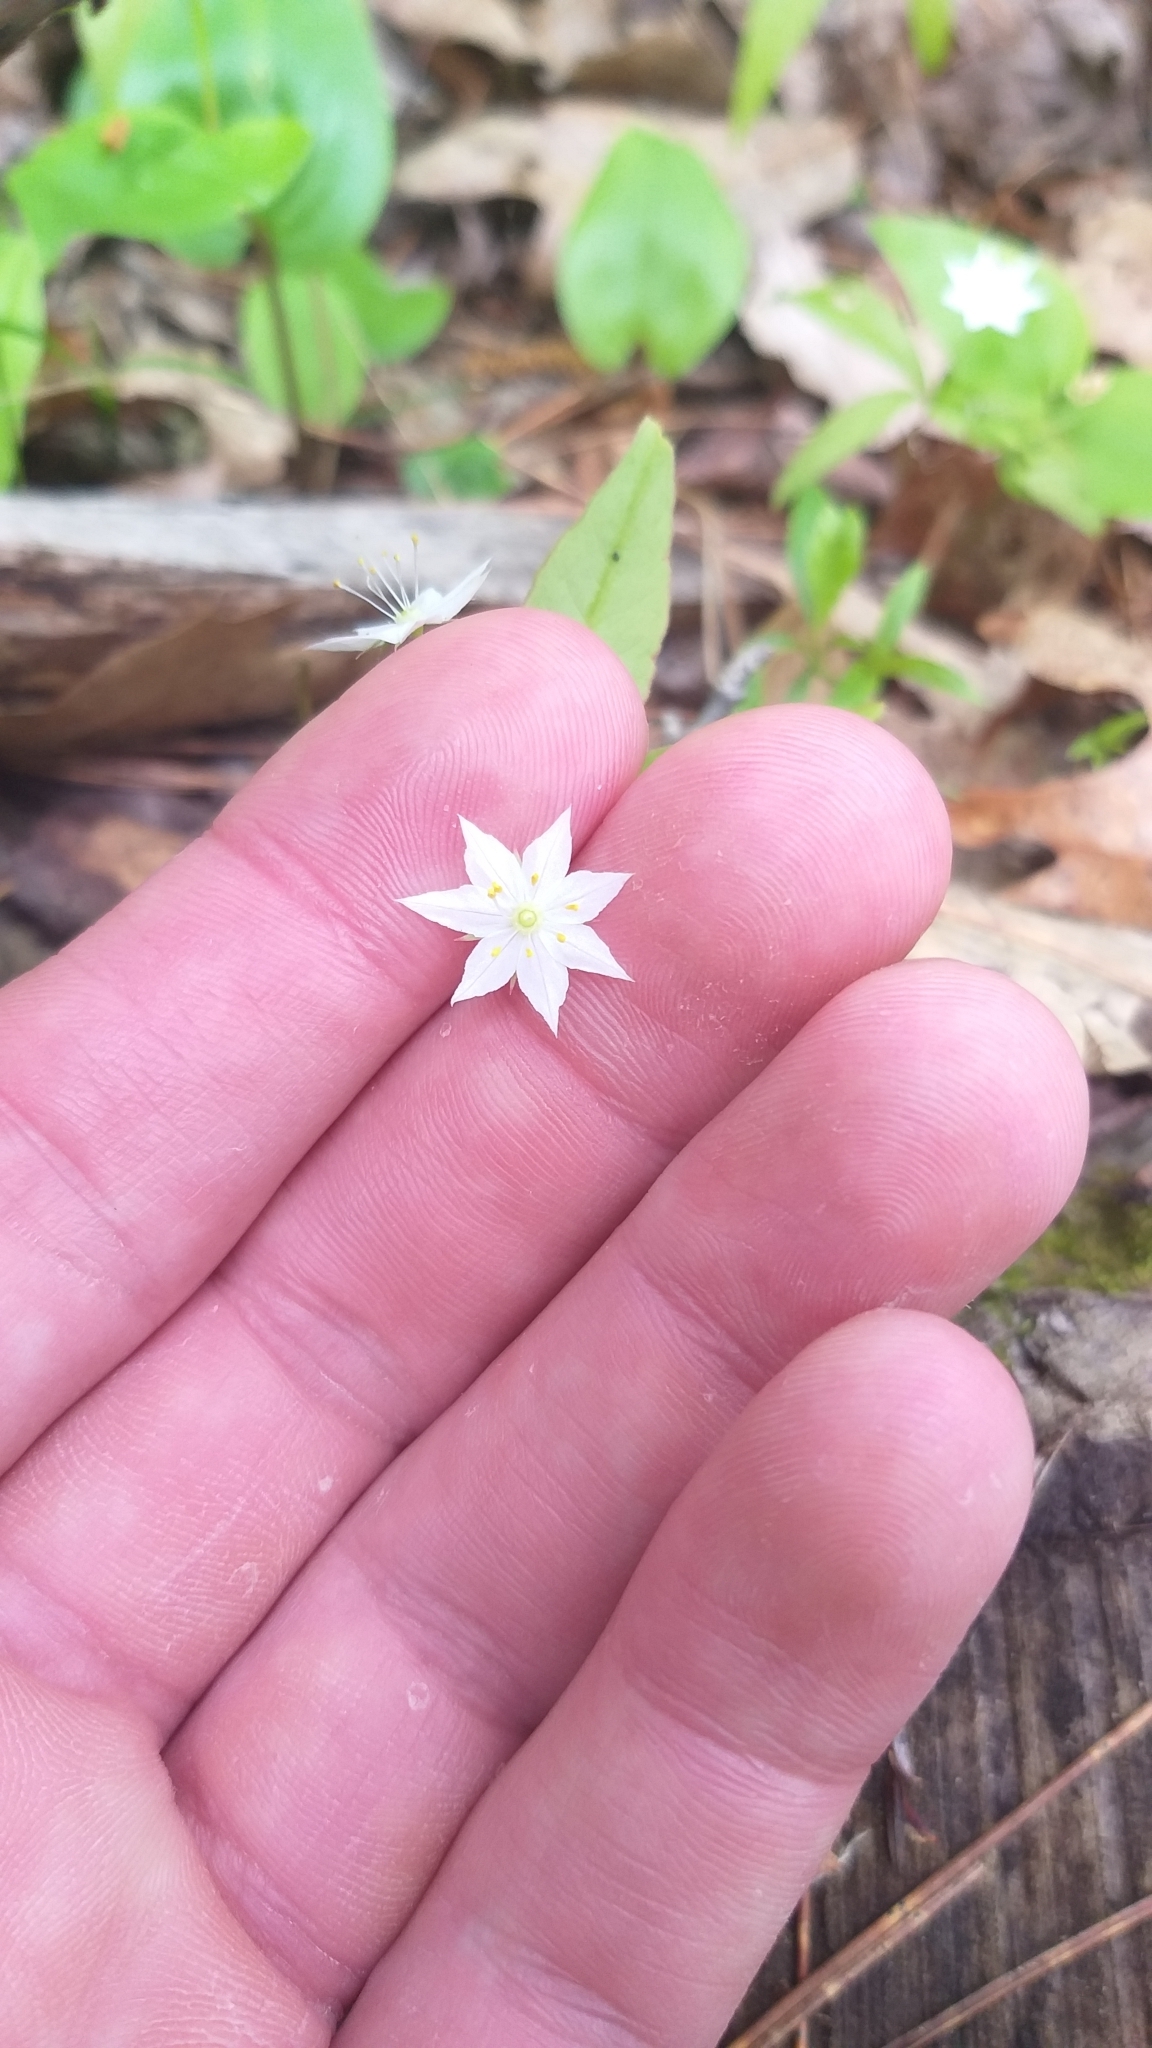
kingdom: Plantae
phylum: Tracheophyta
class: Magnoliopsida
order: Ericales
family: Primulaceae
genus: Lysimachia
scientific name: Lysimachia borealis
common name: American starflower
